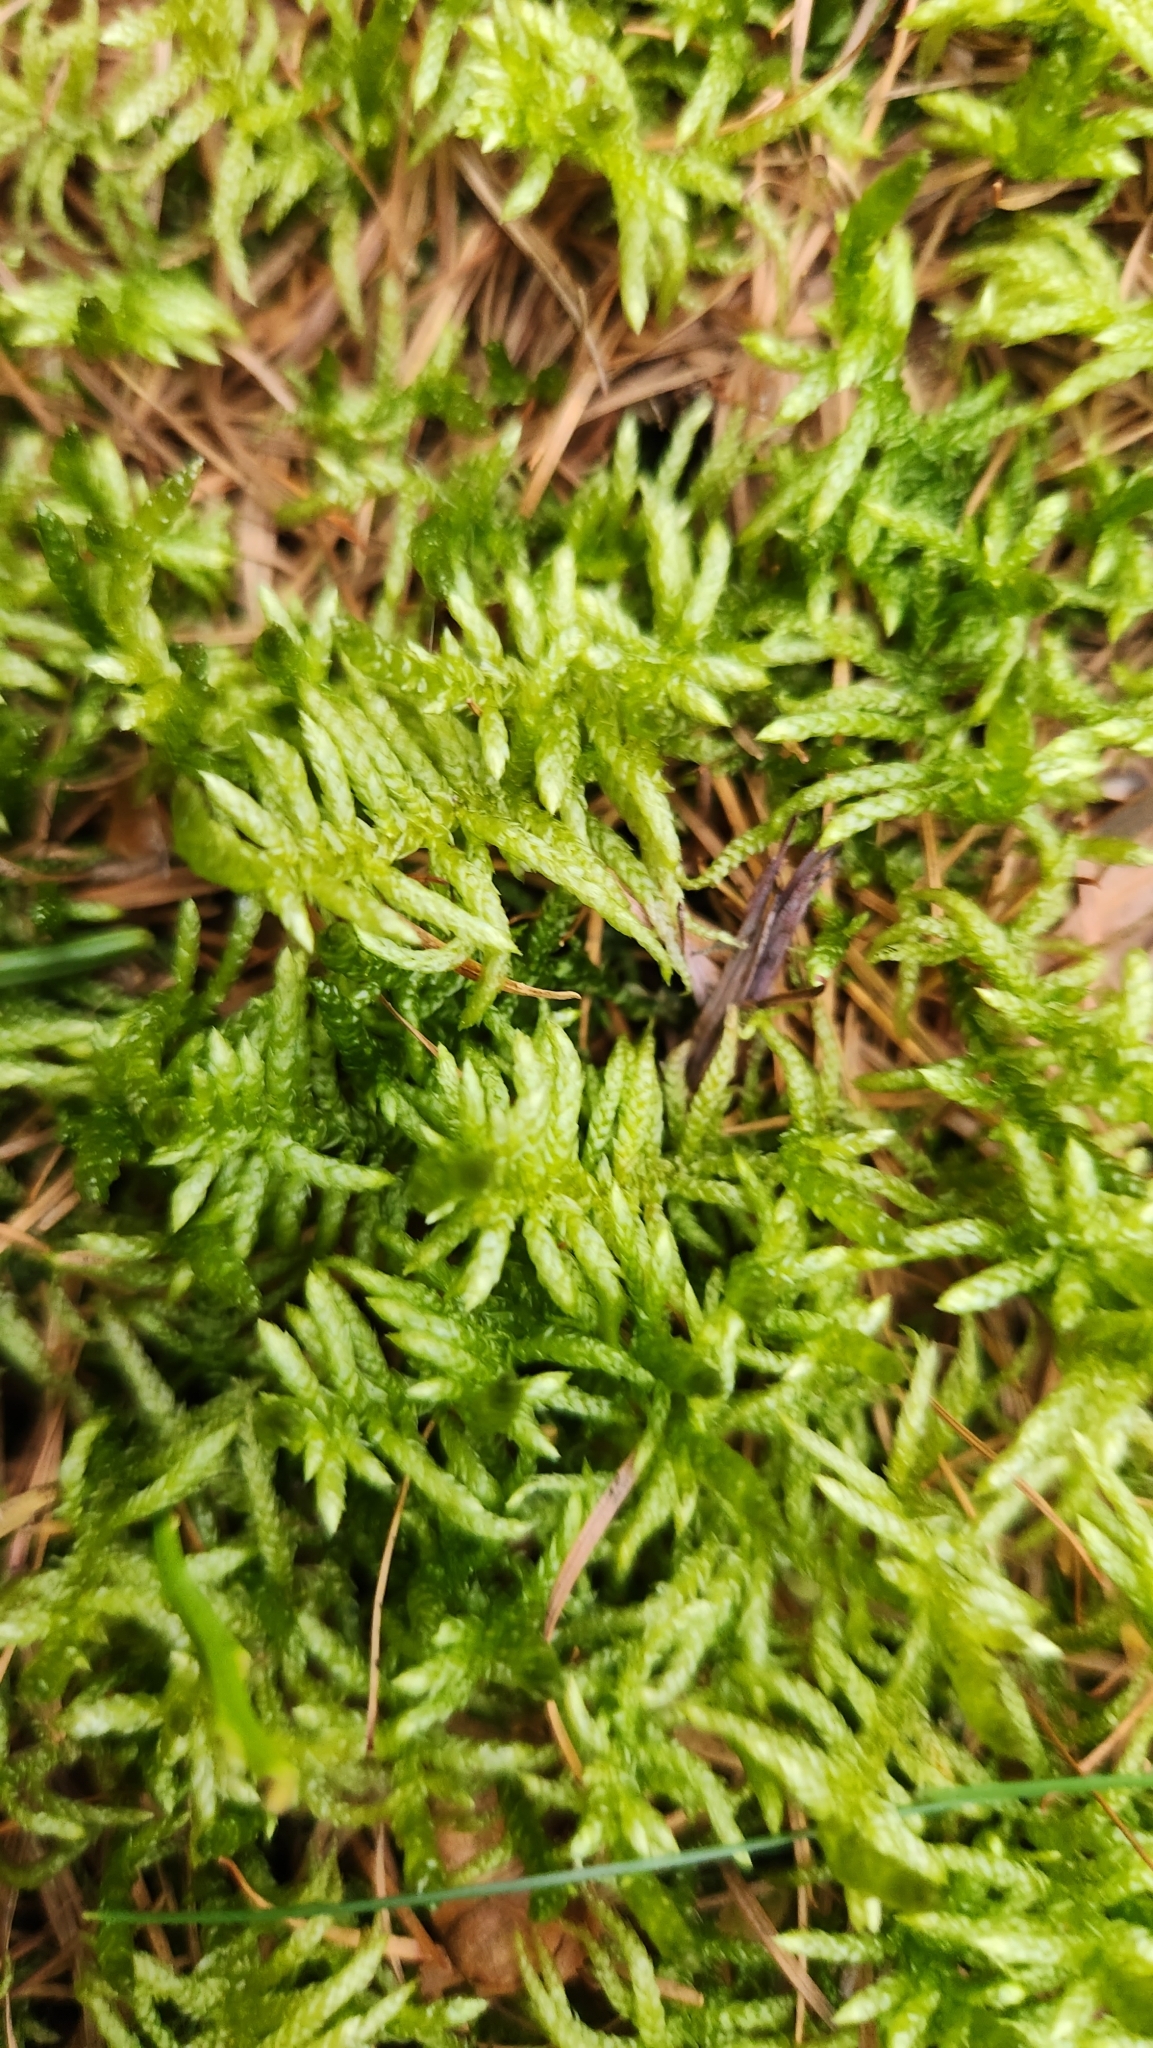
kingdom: Plantae
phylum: Bryophyta
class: Bryopsida
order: Hypnales
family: Brachytheciaceae
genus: Pseudoscleropodium
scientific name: Pseudoscleropodium purum
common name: Neat feather-moss
